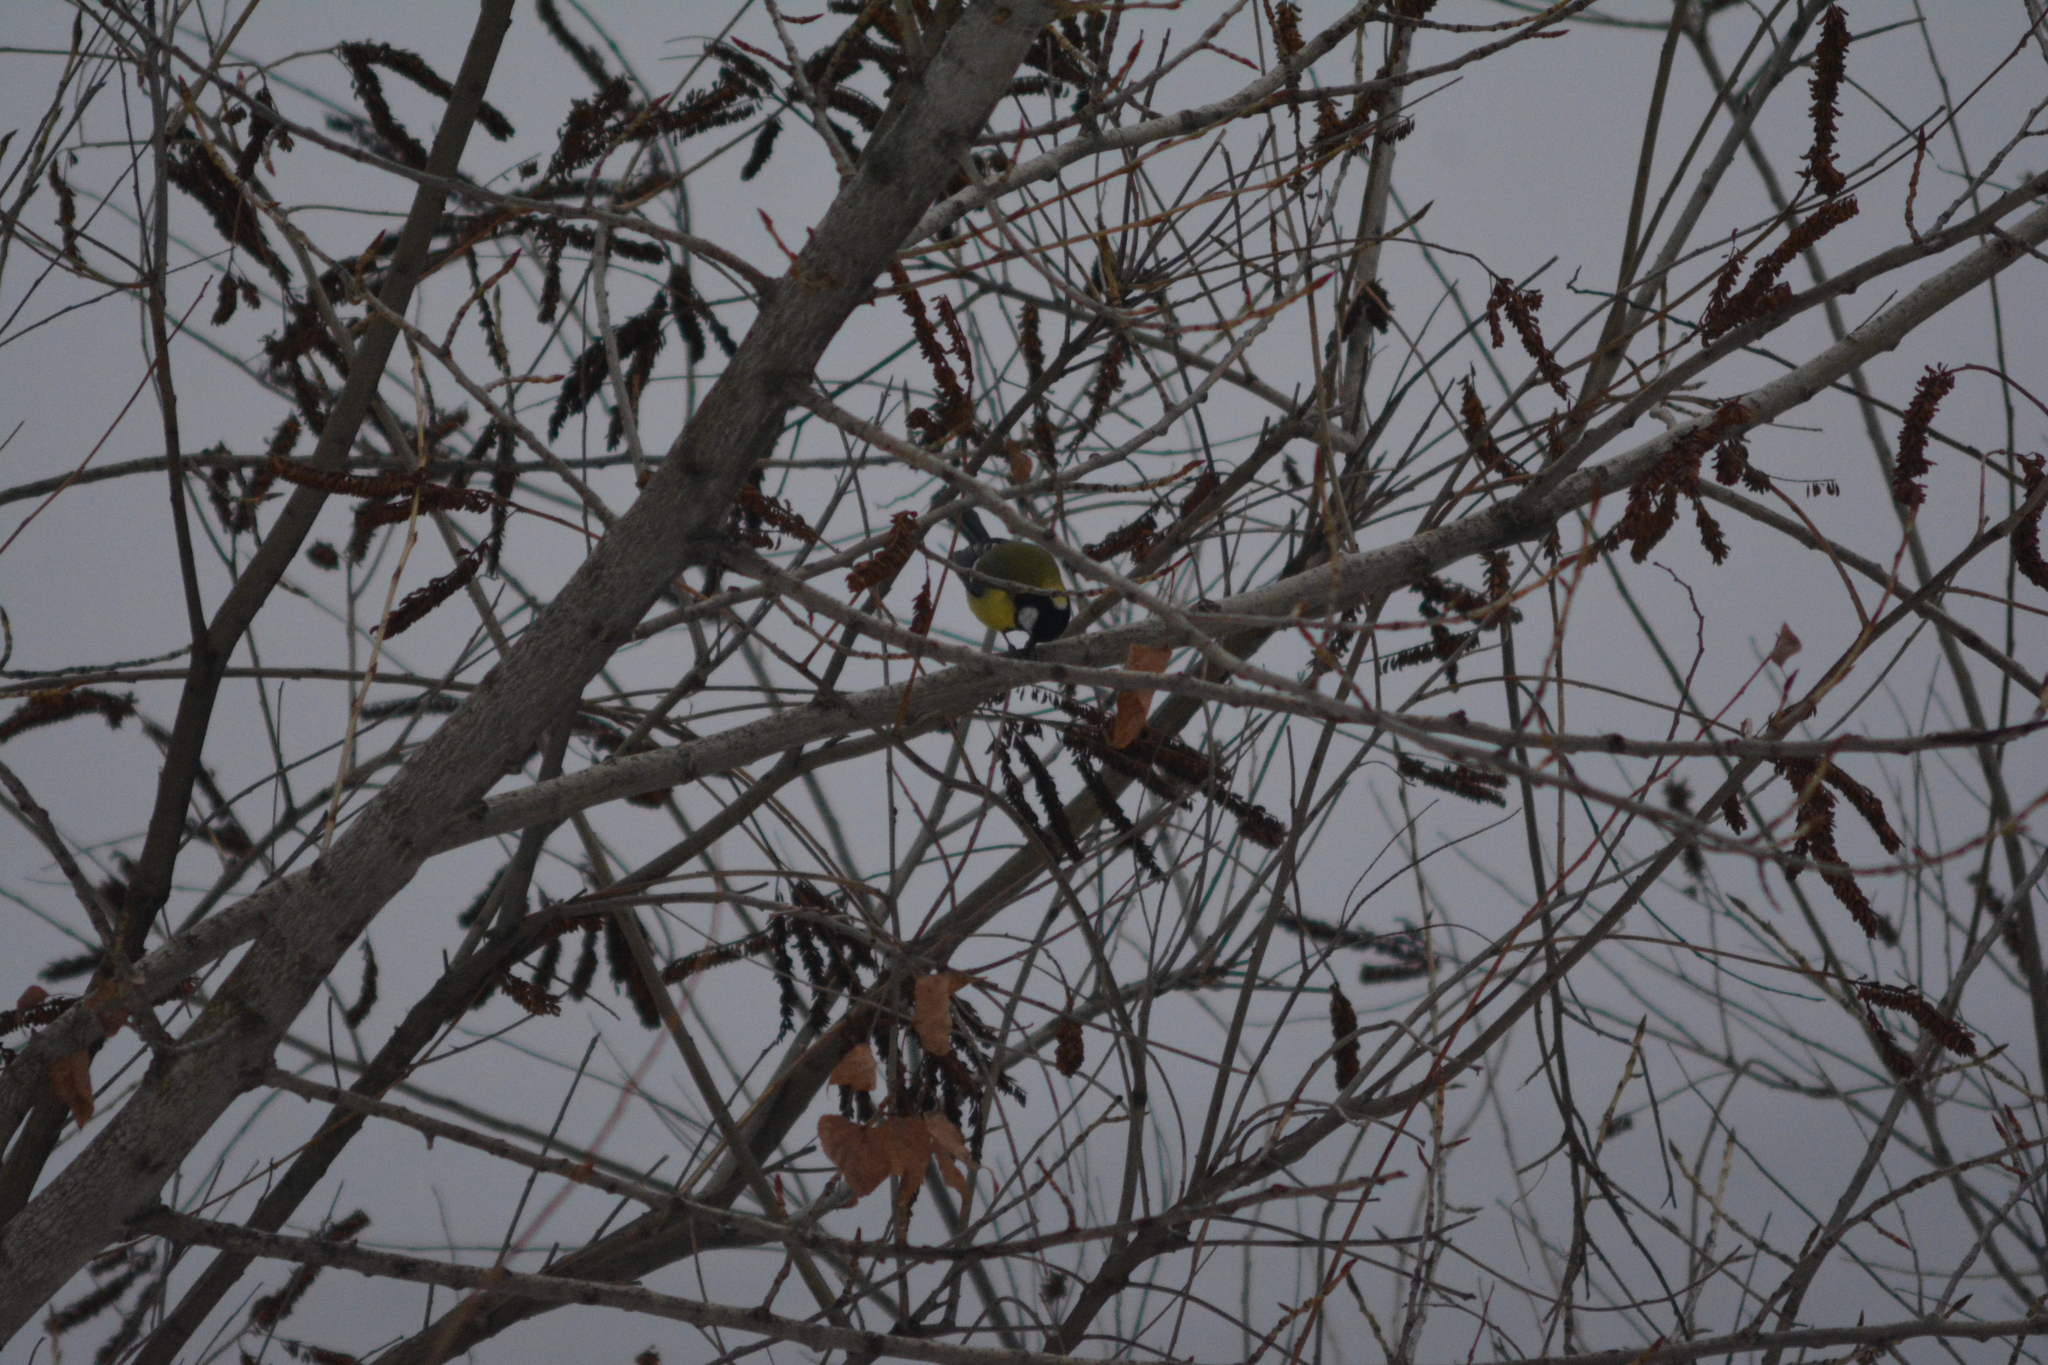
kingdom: Animalia
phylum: Chordata
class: Aves
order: Passeriformes
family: Paridae
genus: Parus
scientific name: Parus major
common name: Great tit
